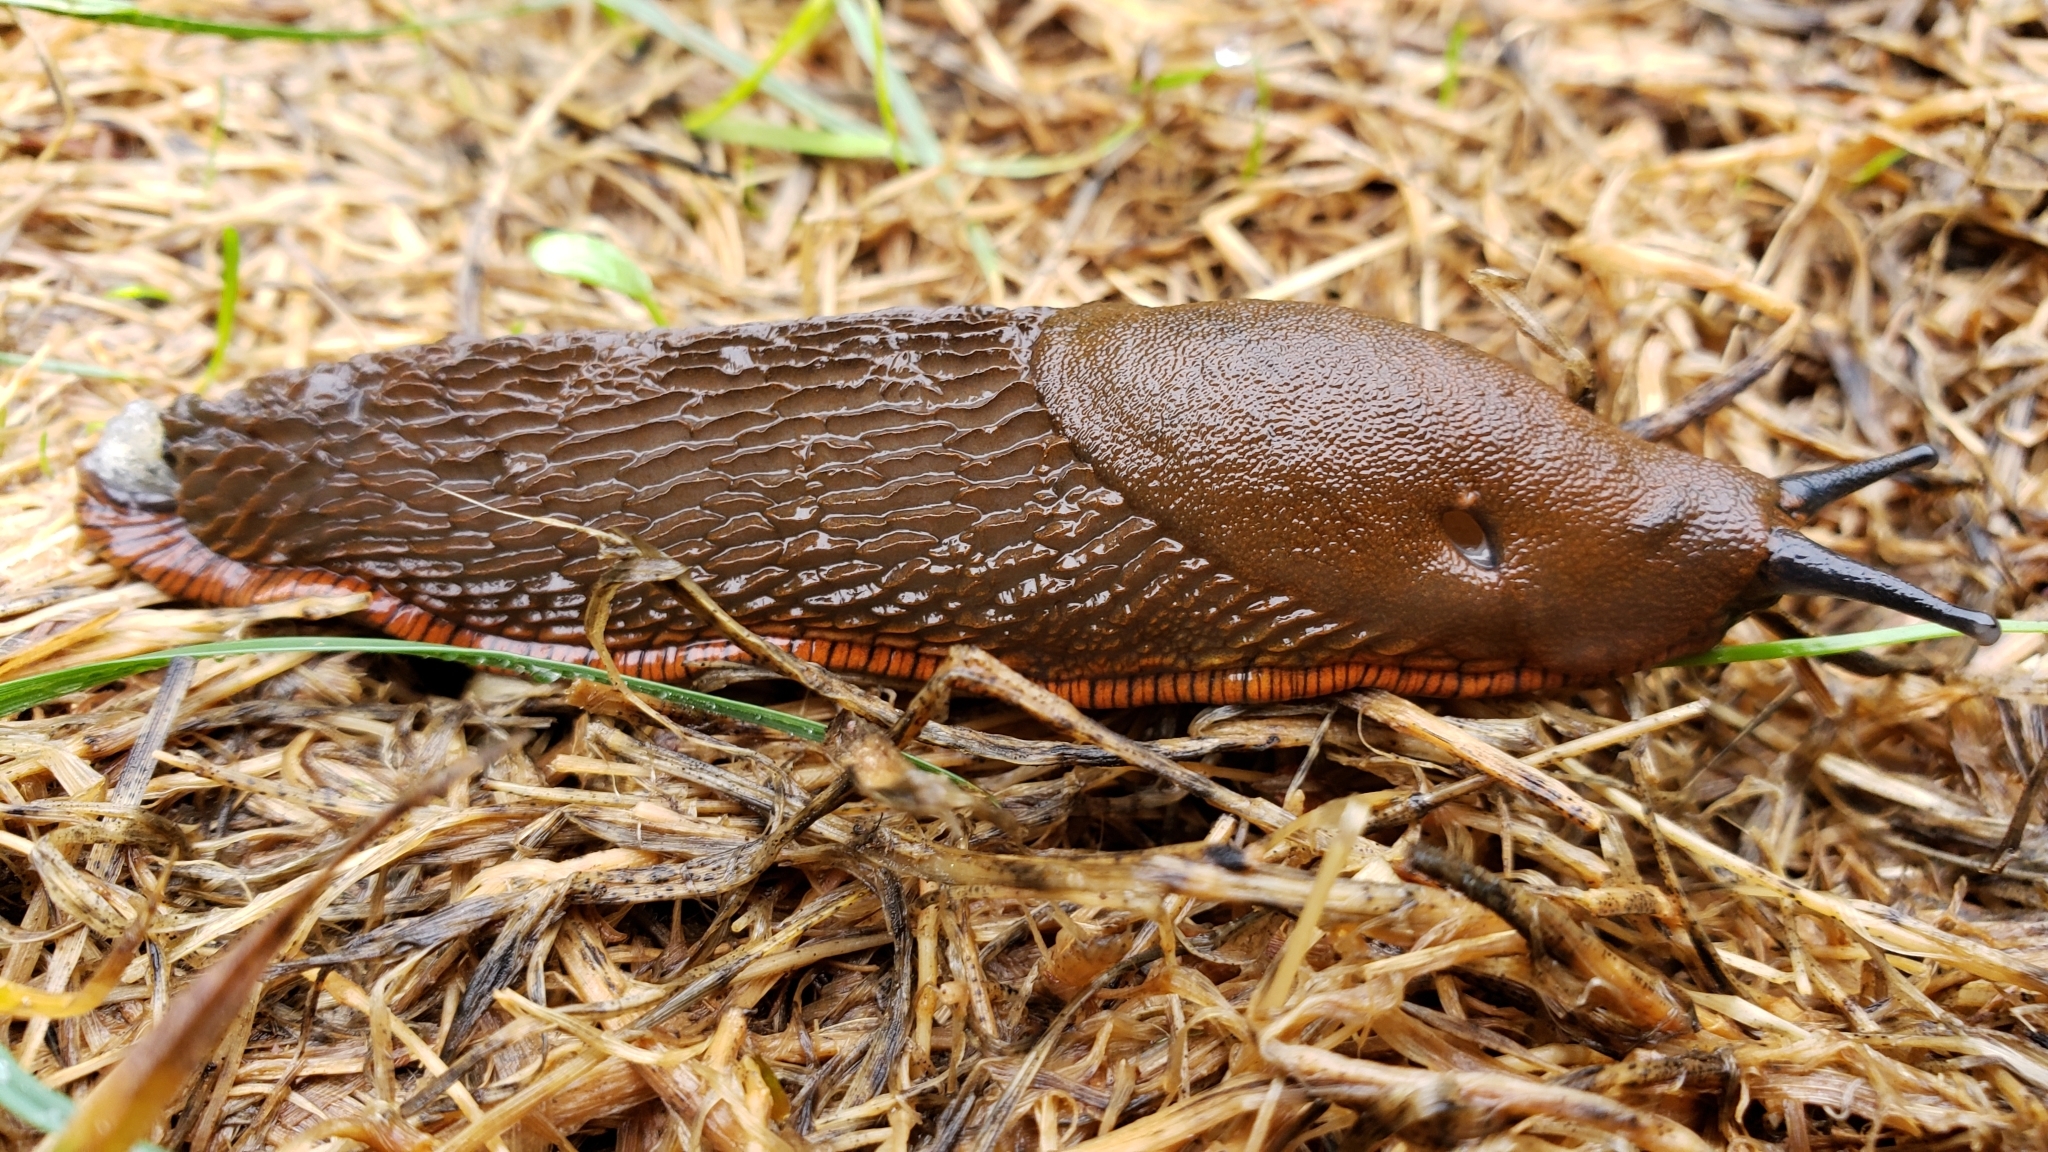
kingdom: Animalia
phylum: Mollusca
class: Gastropoda
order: Stylommatophora
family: Arionidae
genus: Arion
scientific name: Arion
